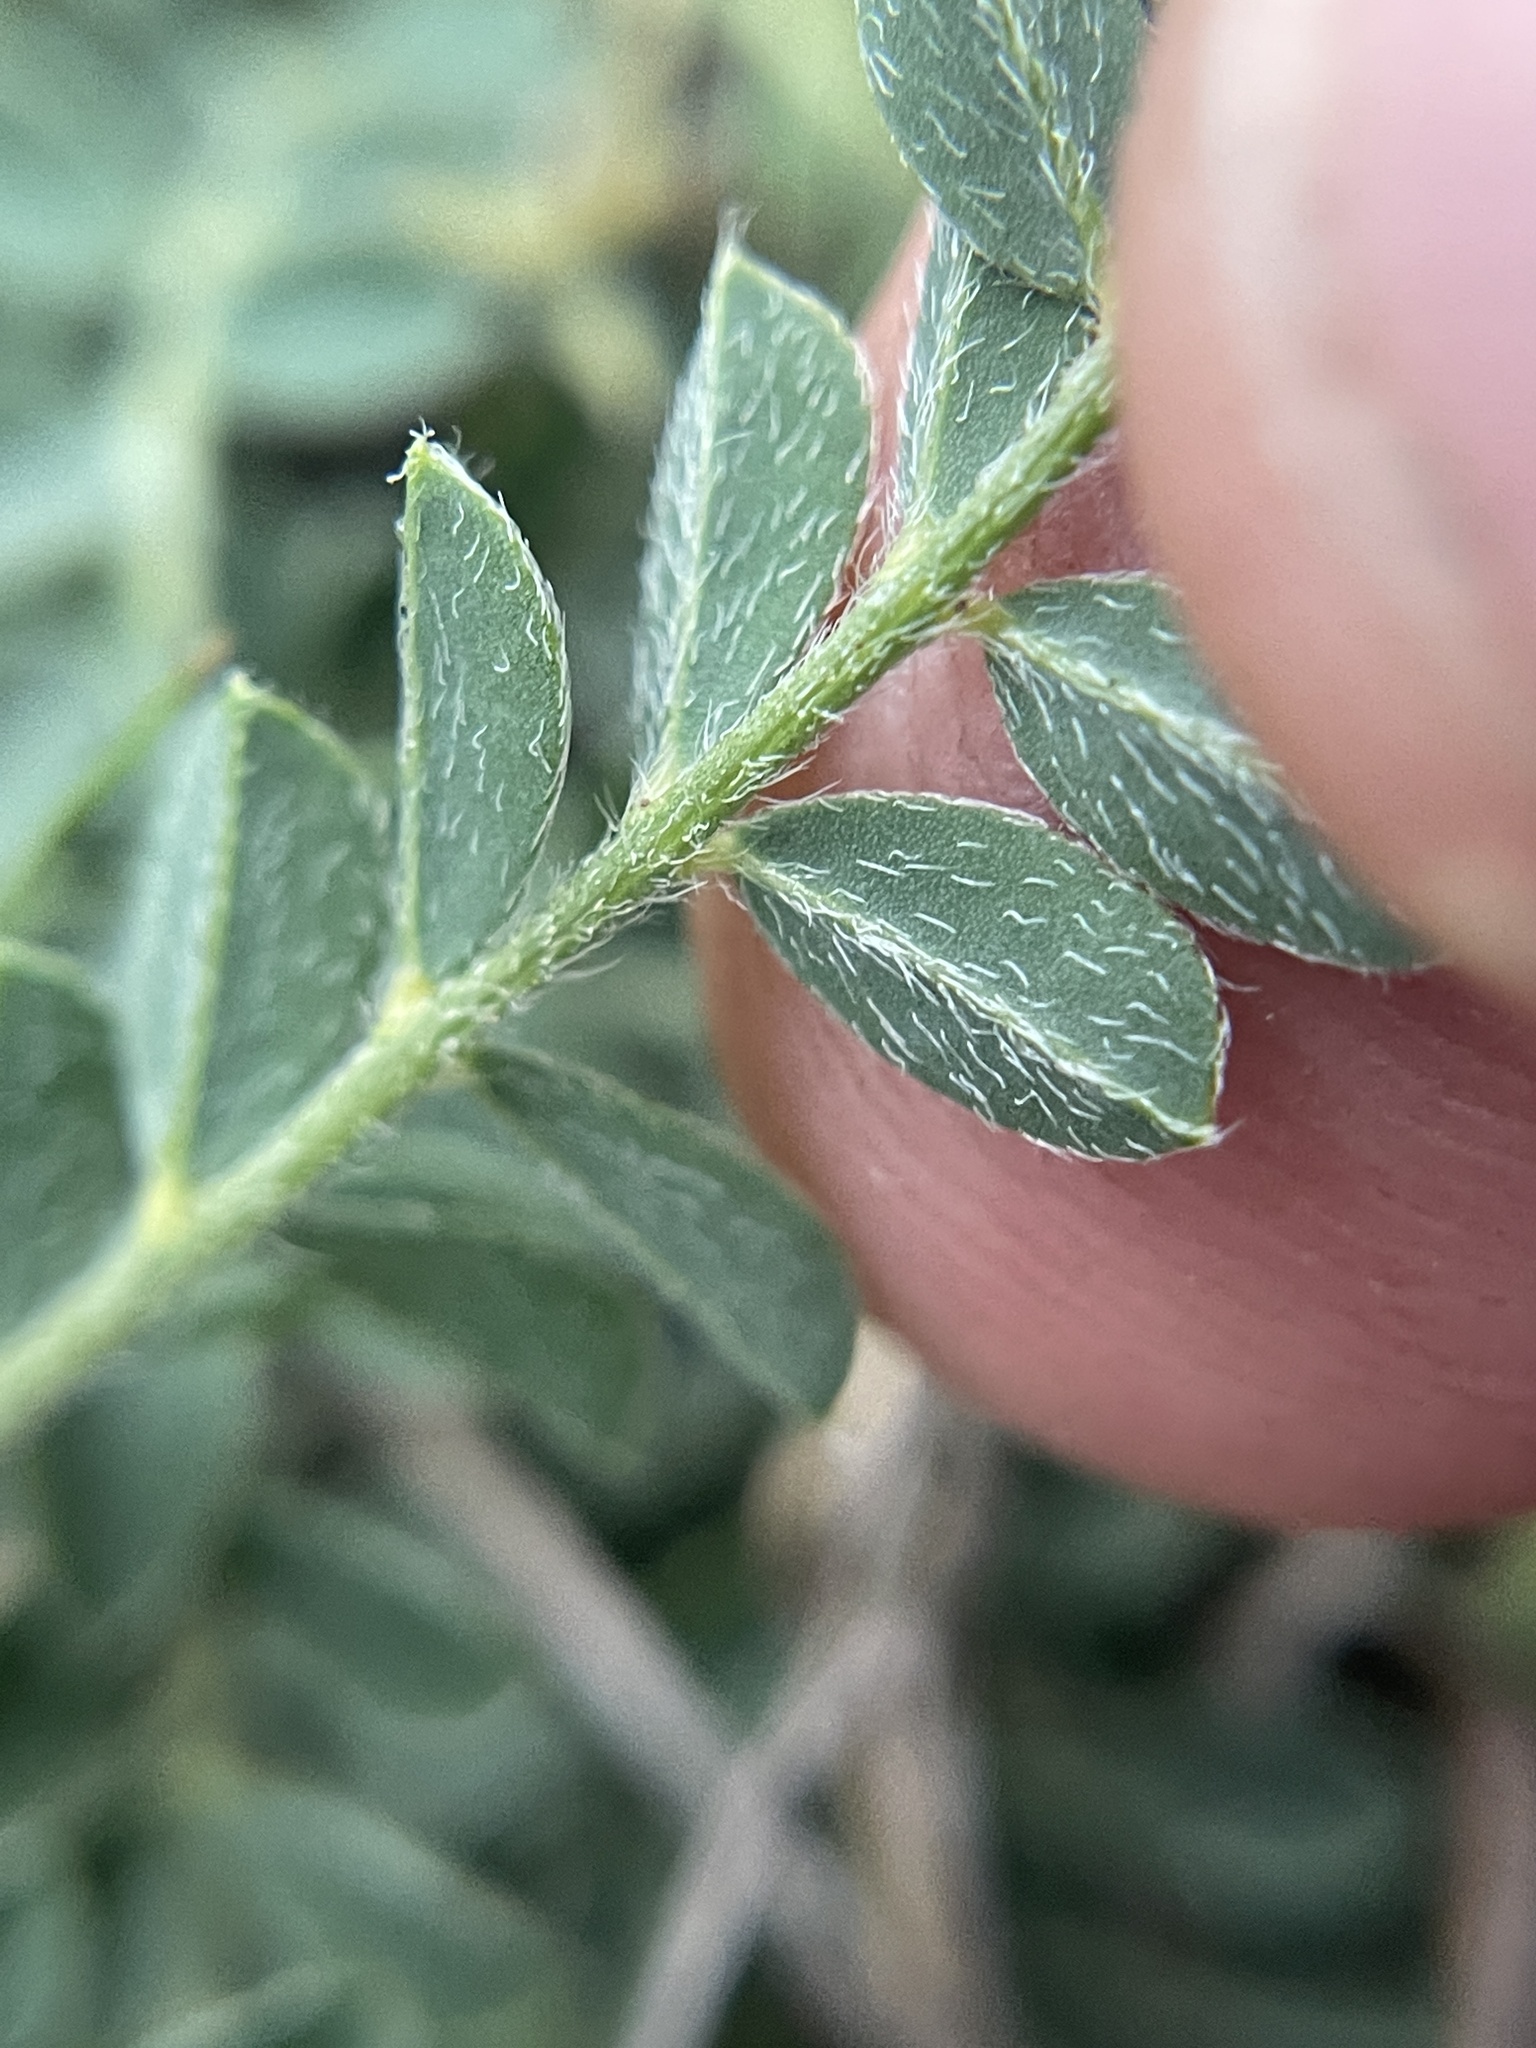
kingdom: Plantae
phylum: Tracheophyta
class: Magnoliopsida
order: Fabales
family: Fabaceae
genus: Astragalus
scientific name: Astragalus plattensis
